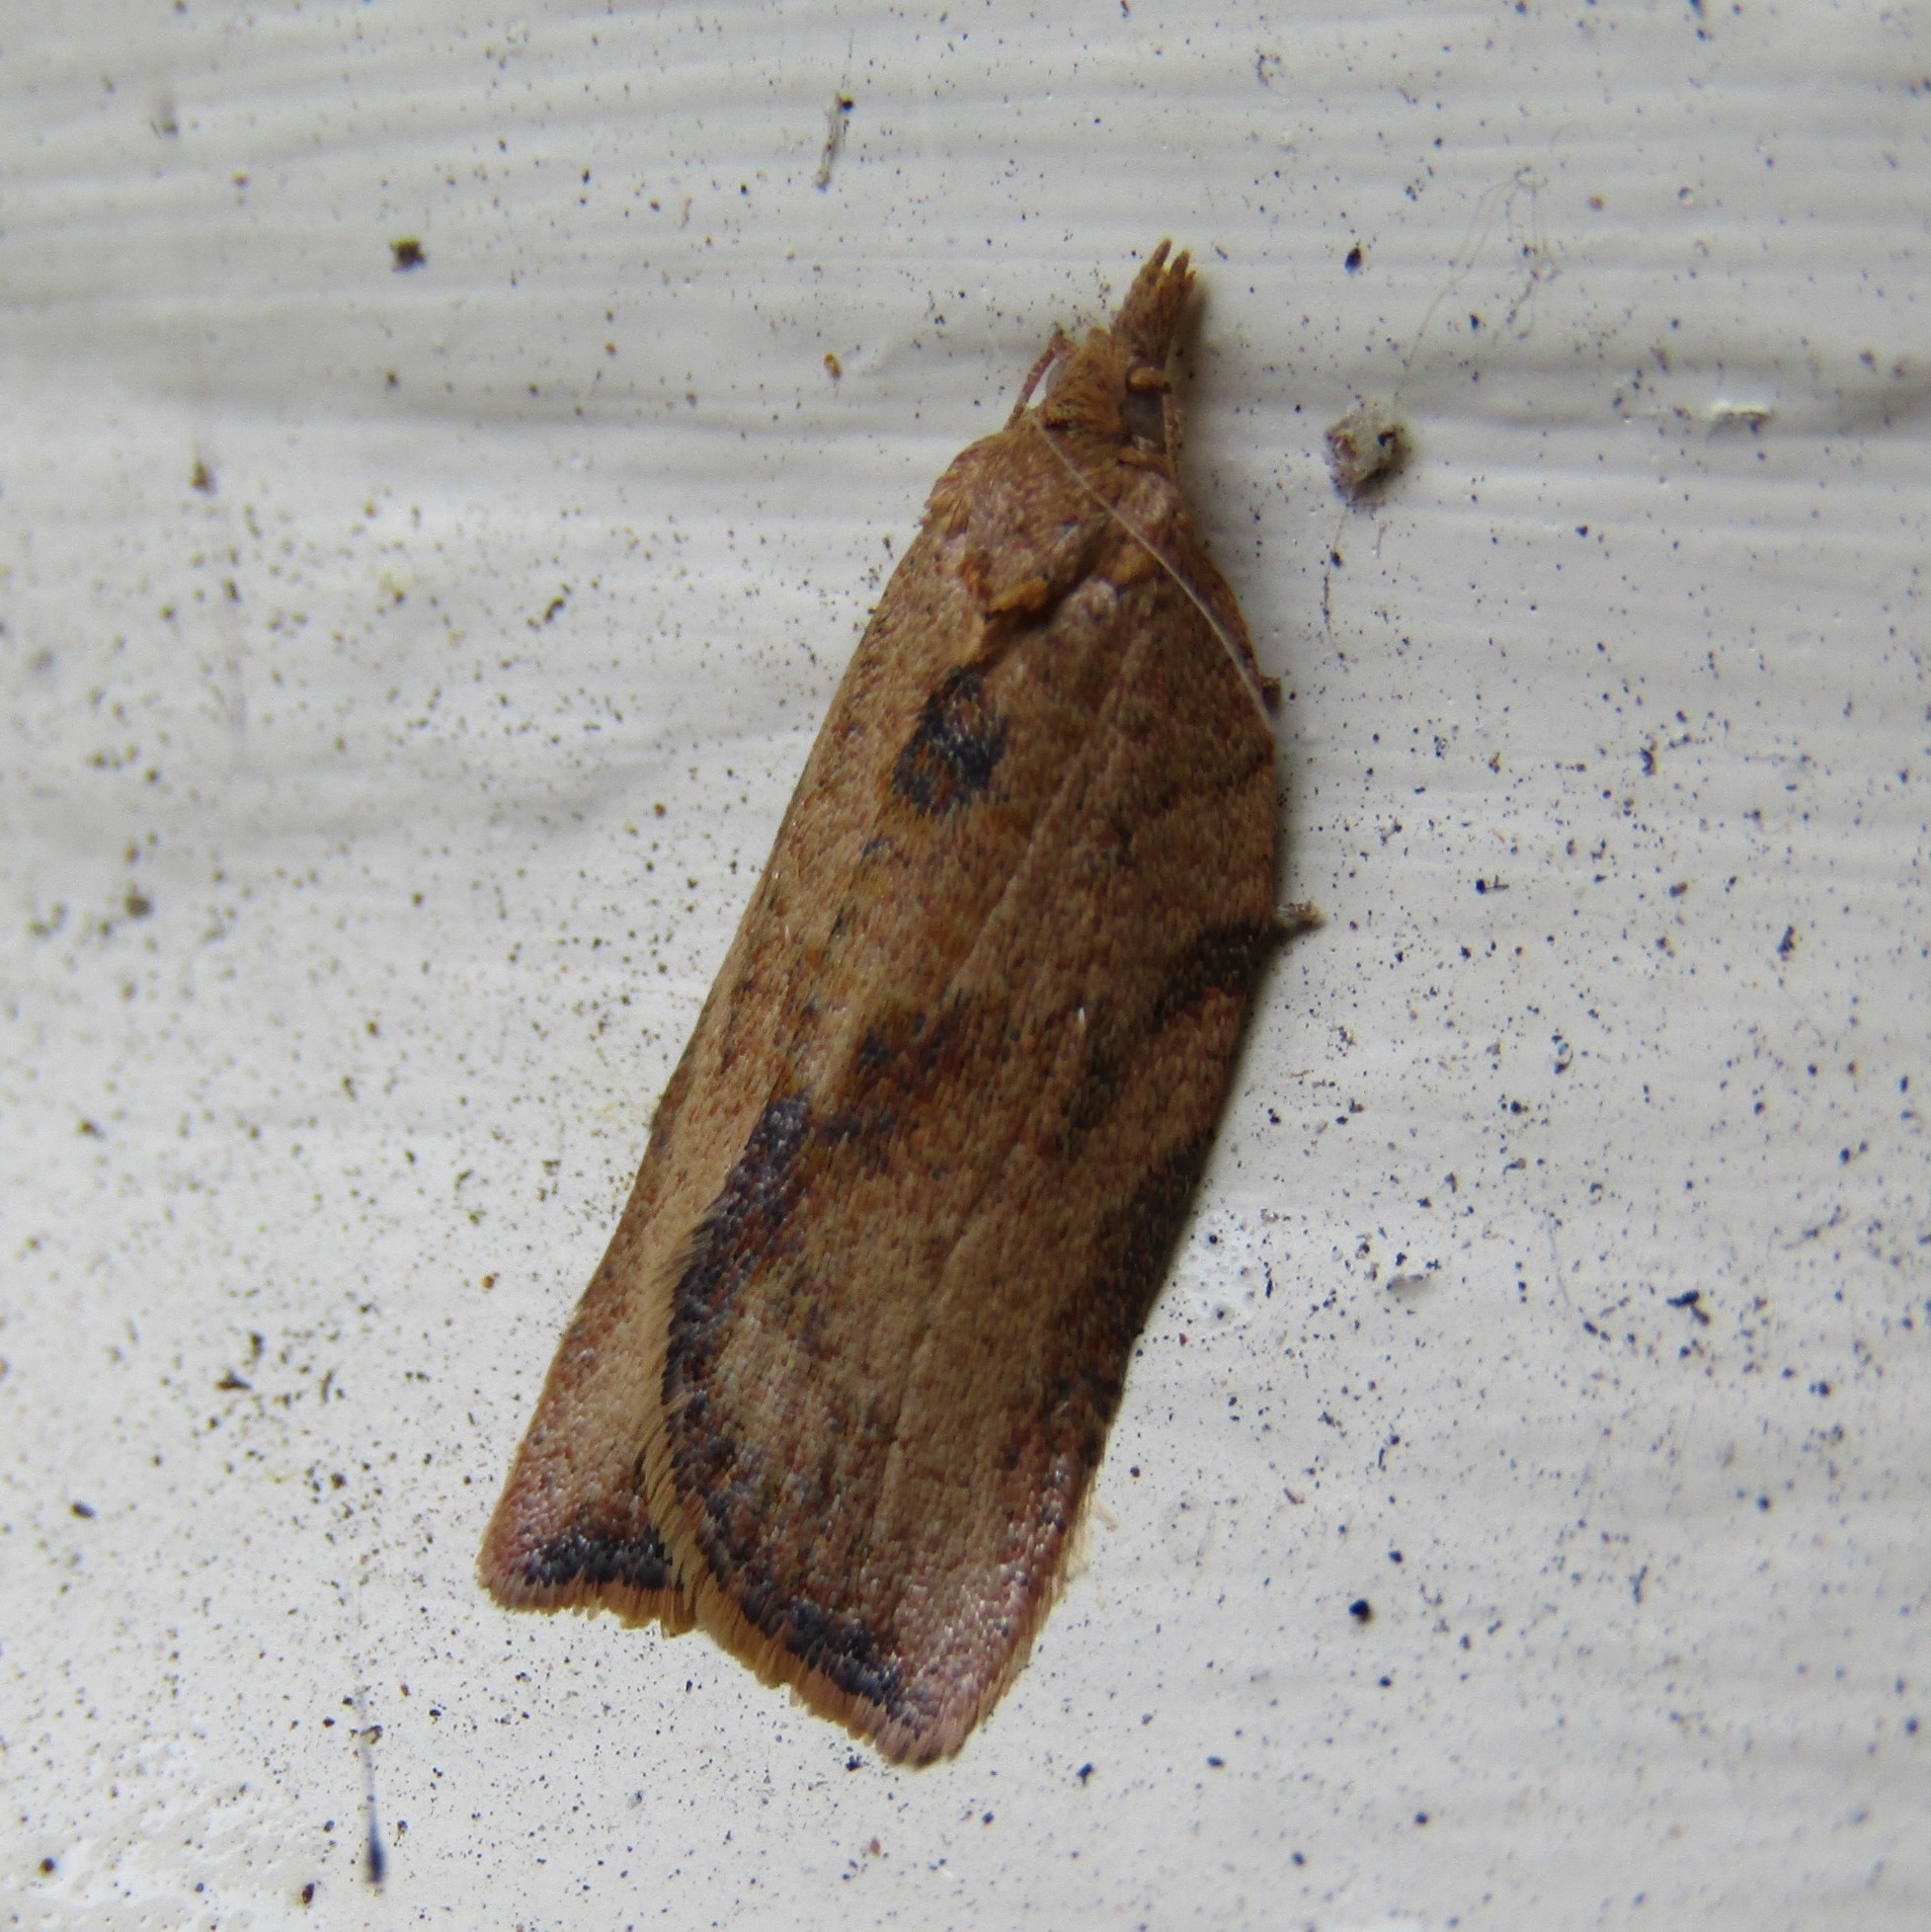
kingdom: Animalia
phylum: Arthropoda
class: Insecta
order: Lepidoptera
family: Tortricidae
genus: Epiphyas
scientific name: Epiphyas postvittana
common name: Light brown apple moth
